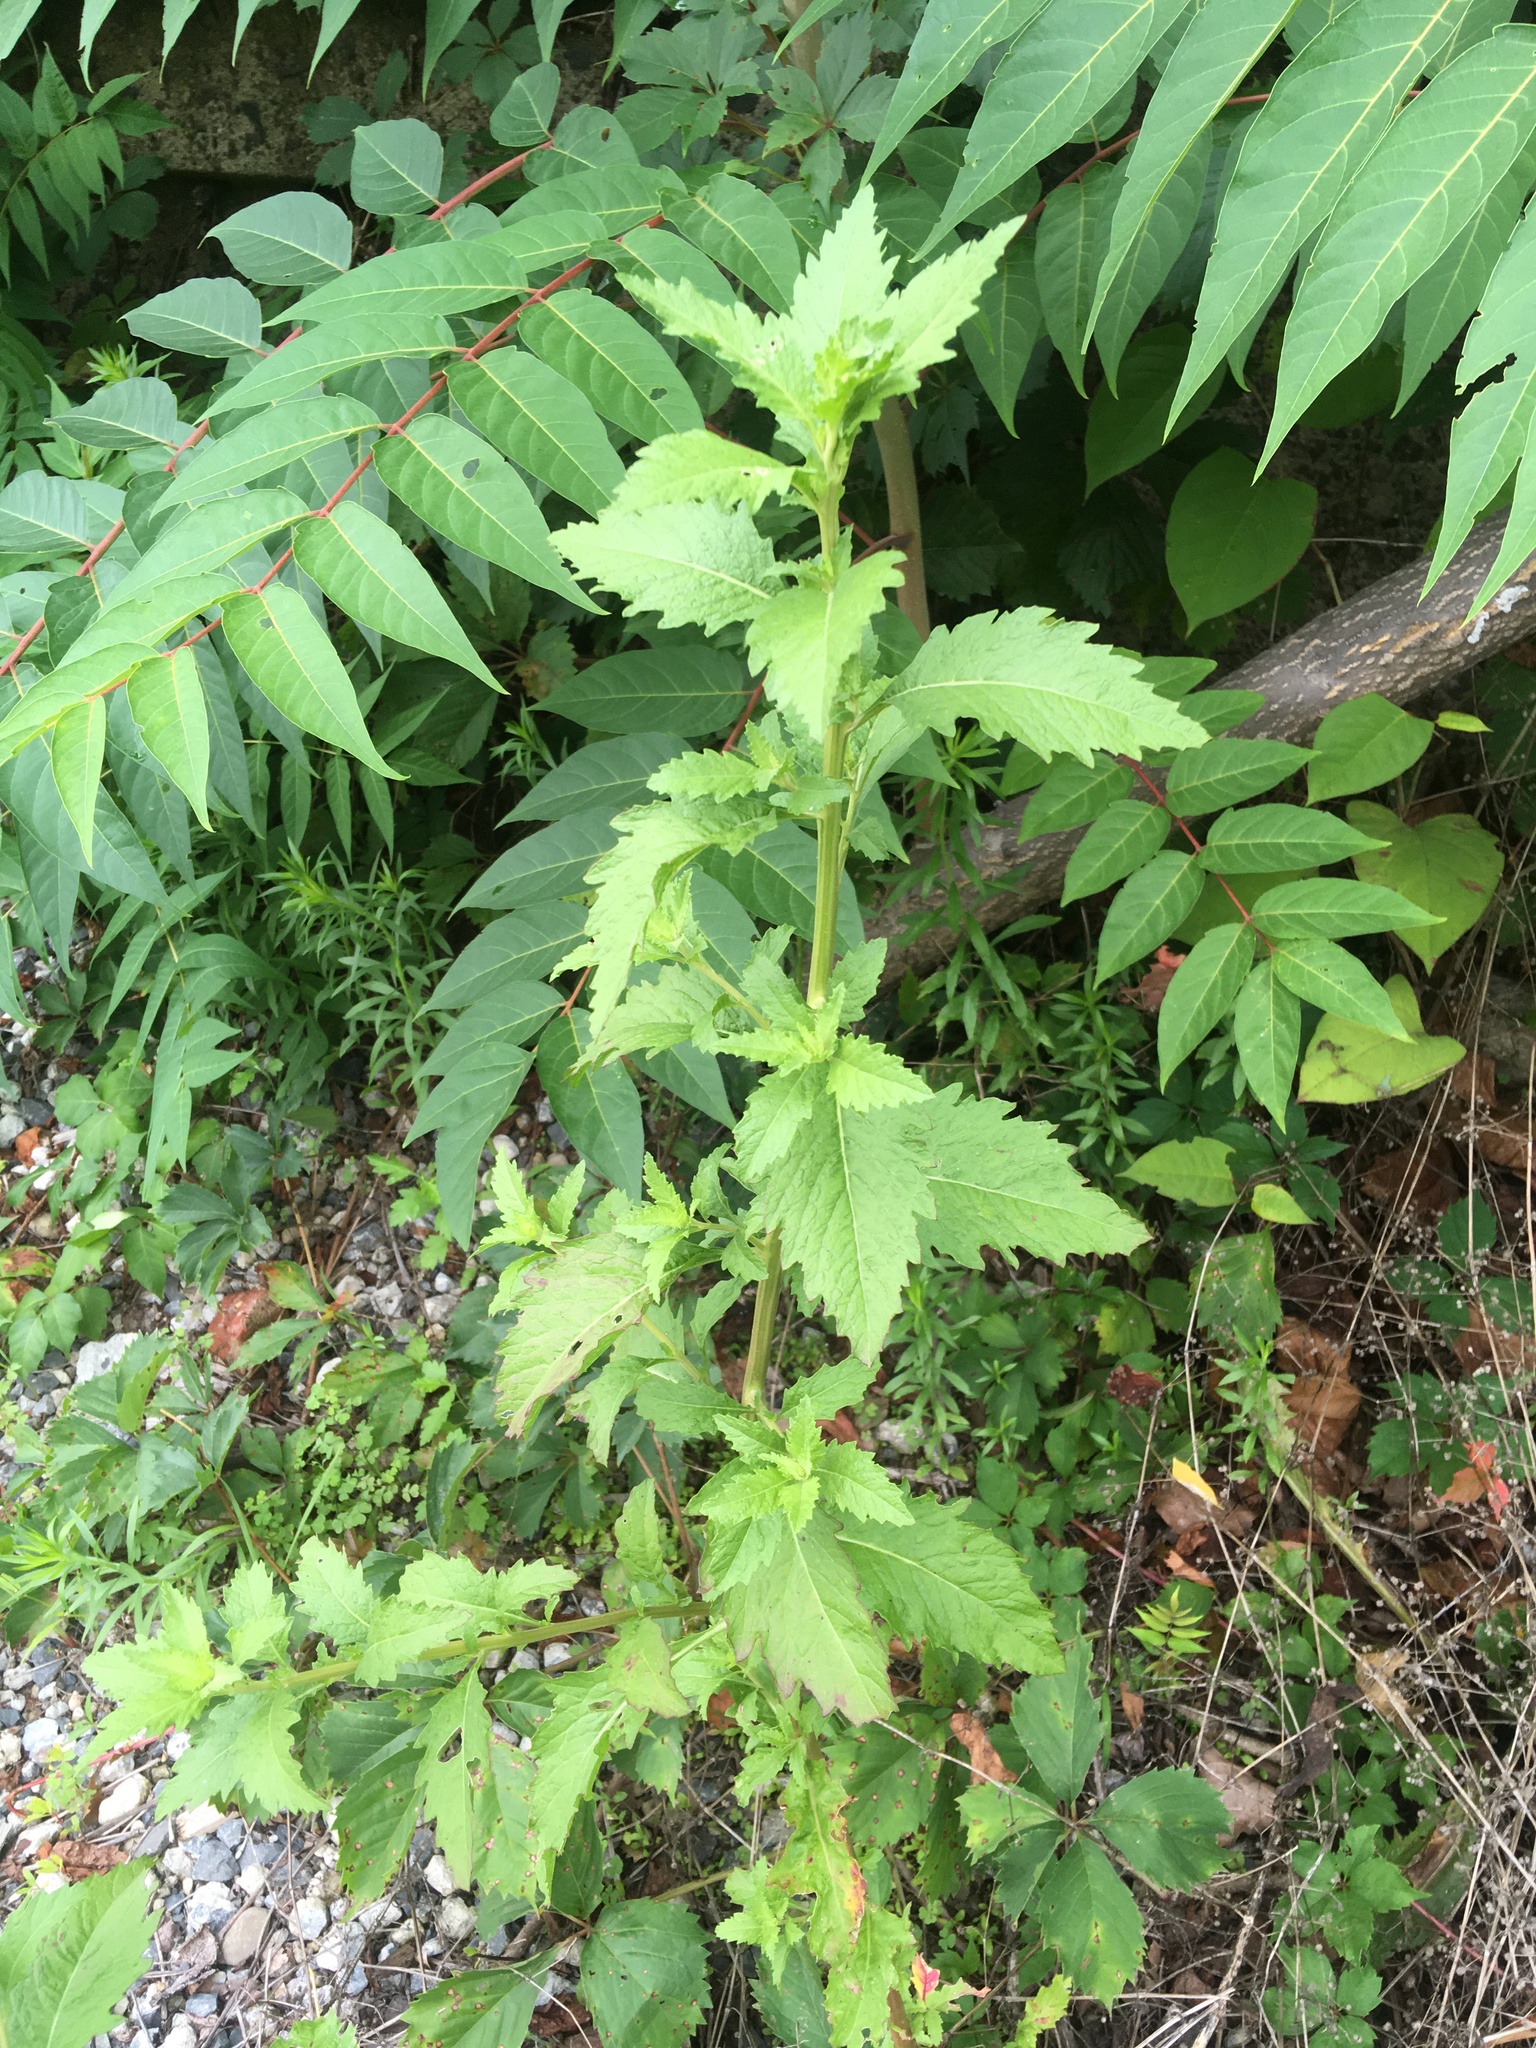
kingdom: Plantae
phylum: Tracheophyta
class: Magnoliopsida
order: Caryophyllales
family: Amaranthaceae
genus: Dysphania
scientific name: Dysphania ambrosioides
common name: Wormseed
